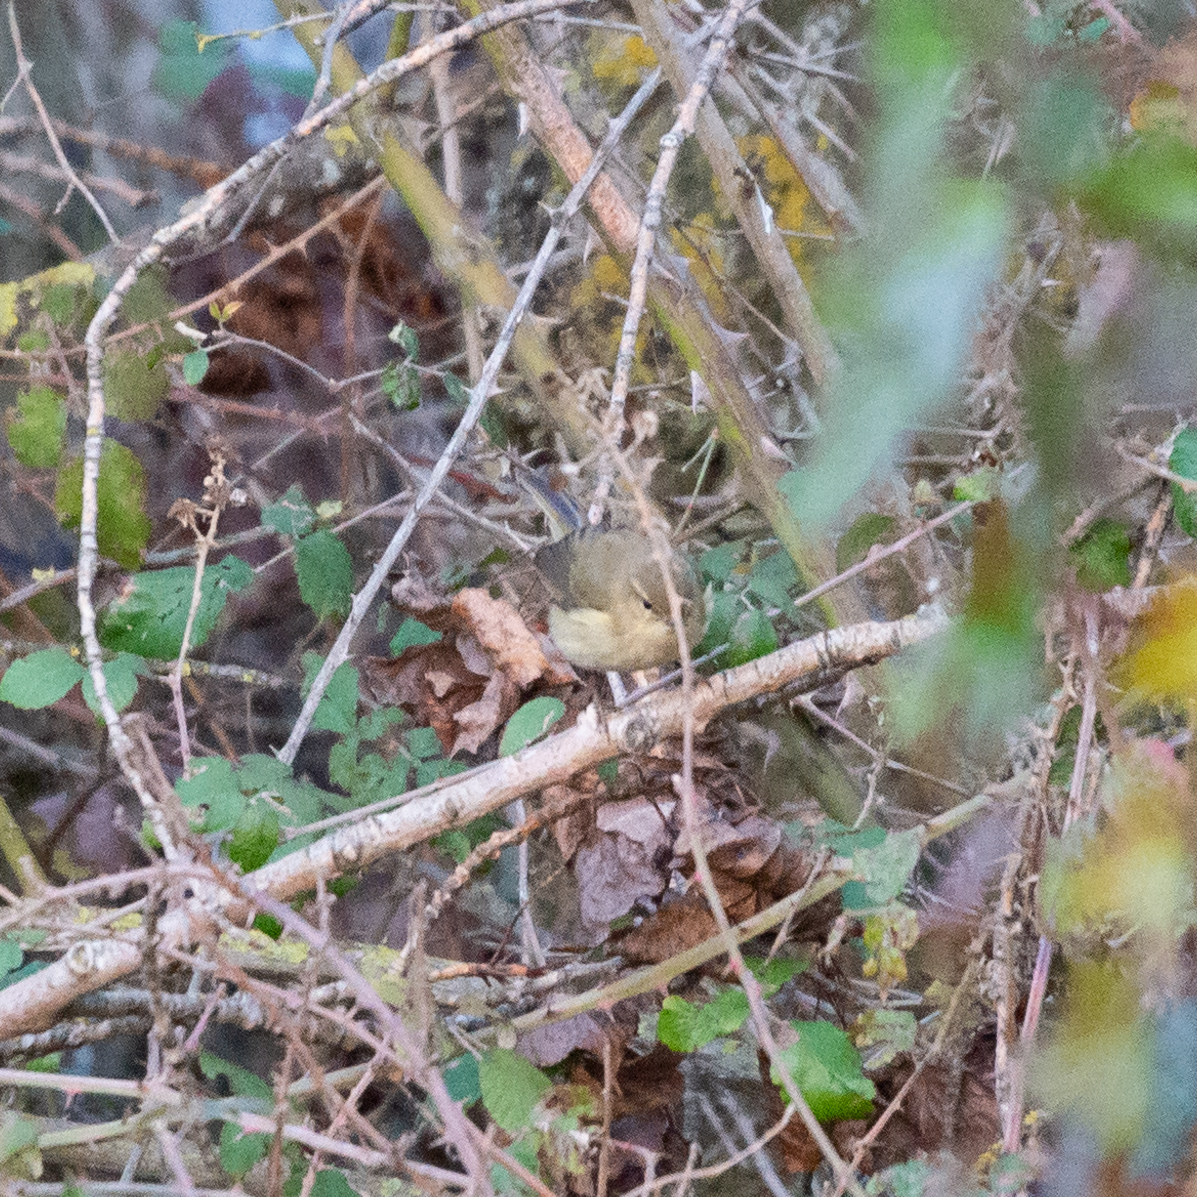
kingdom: Animalia
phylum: Chordata
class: Aves
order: Passeriformes
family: Phylloscopidae
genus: Phylloscopus
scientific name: Phylloscopus collybita
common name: Common chiffchaff
